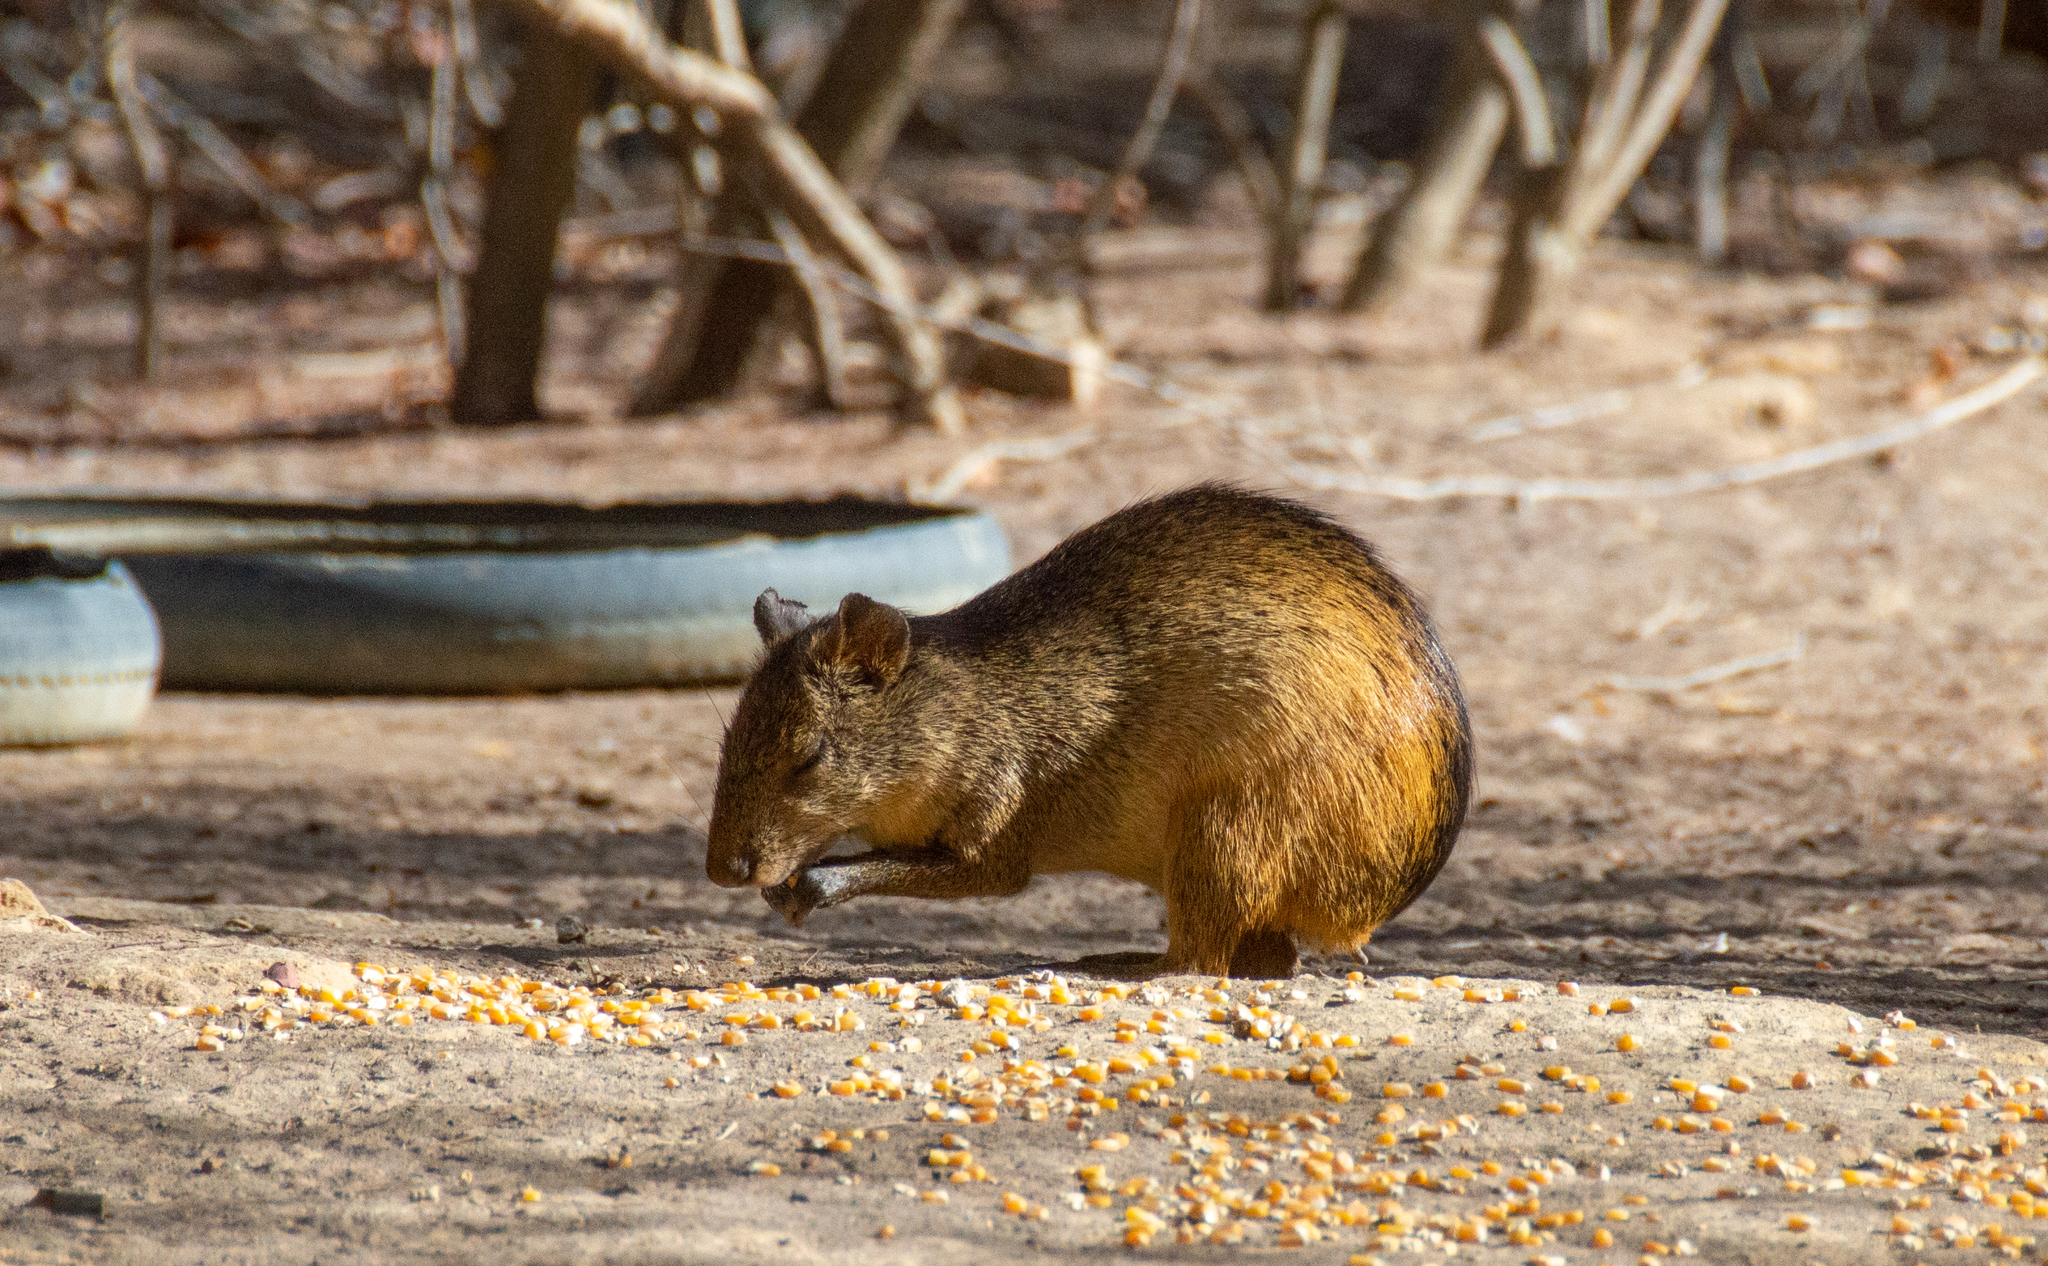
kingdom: Animalia
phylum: Chordata
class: Mammalia
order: Rodentia
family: Dasyproctidae
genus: Dasyprocta
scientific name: Dasyprocta prymnolopha
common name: Black-rumped agouti
